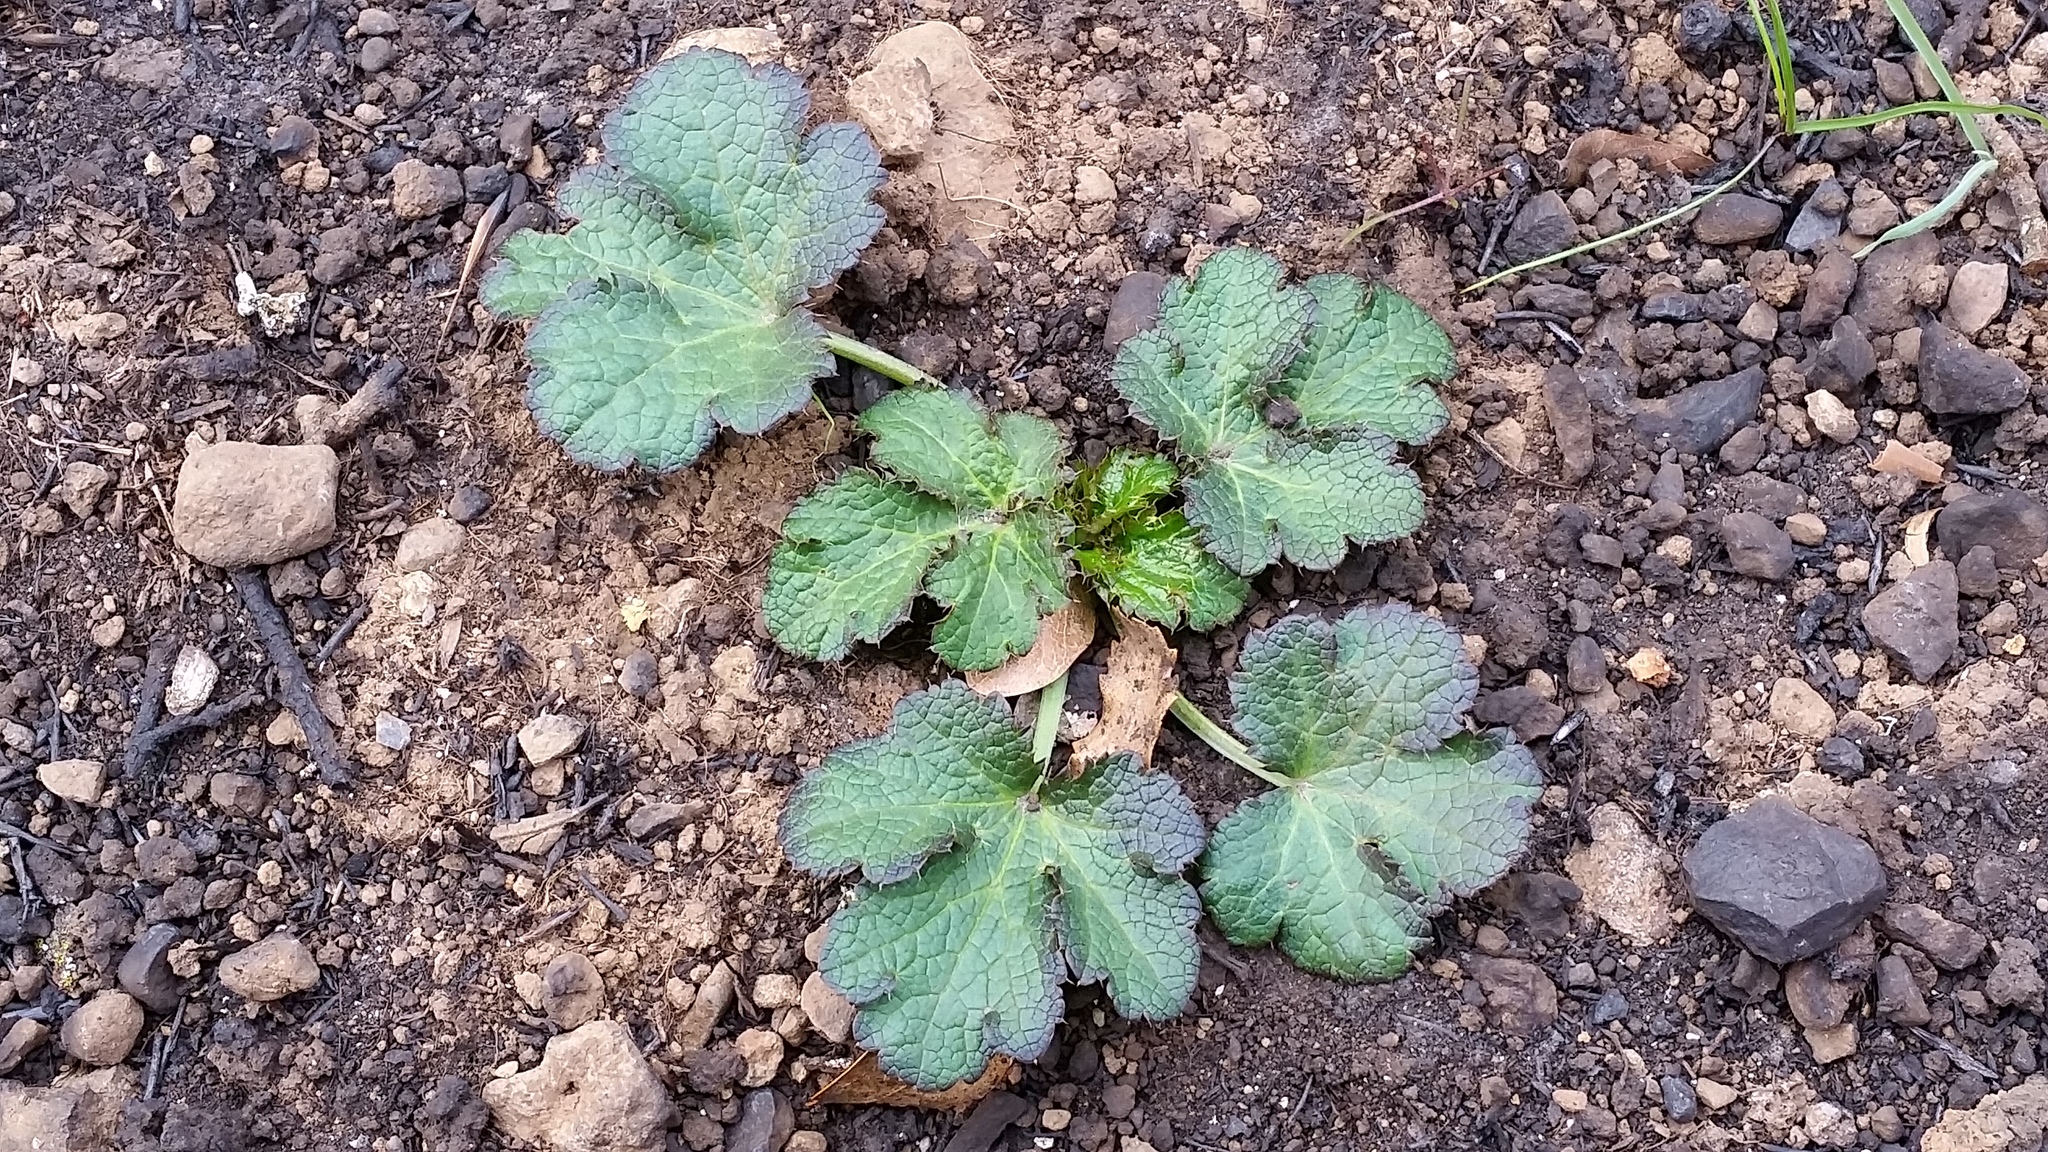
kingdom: Plantae
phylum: Tracheophyta
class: Magnoliopsida
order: Apiales
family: Apiaceae
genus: Sanicula
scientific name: Sanicula crassicaulis
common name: Western snakeroot
